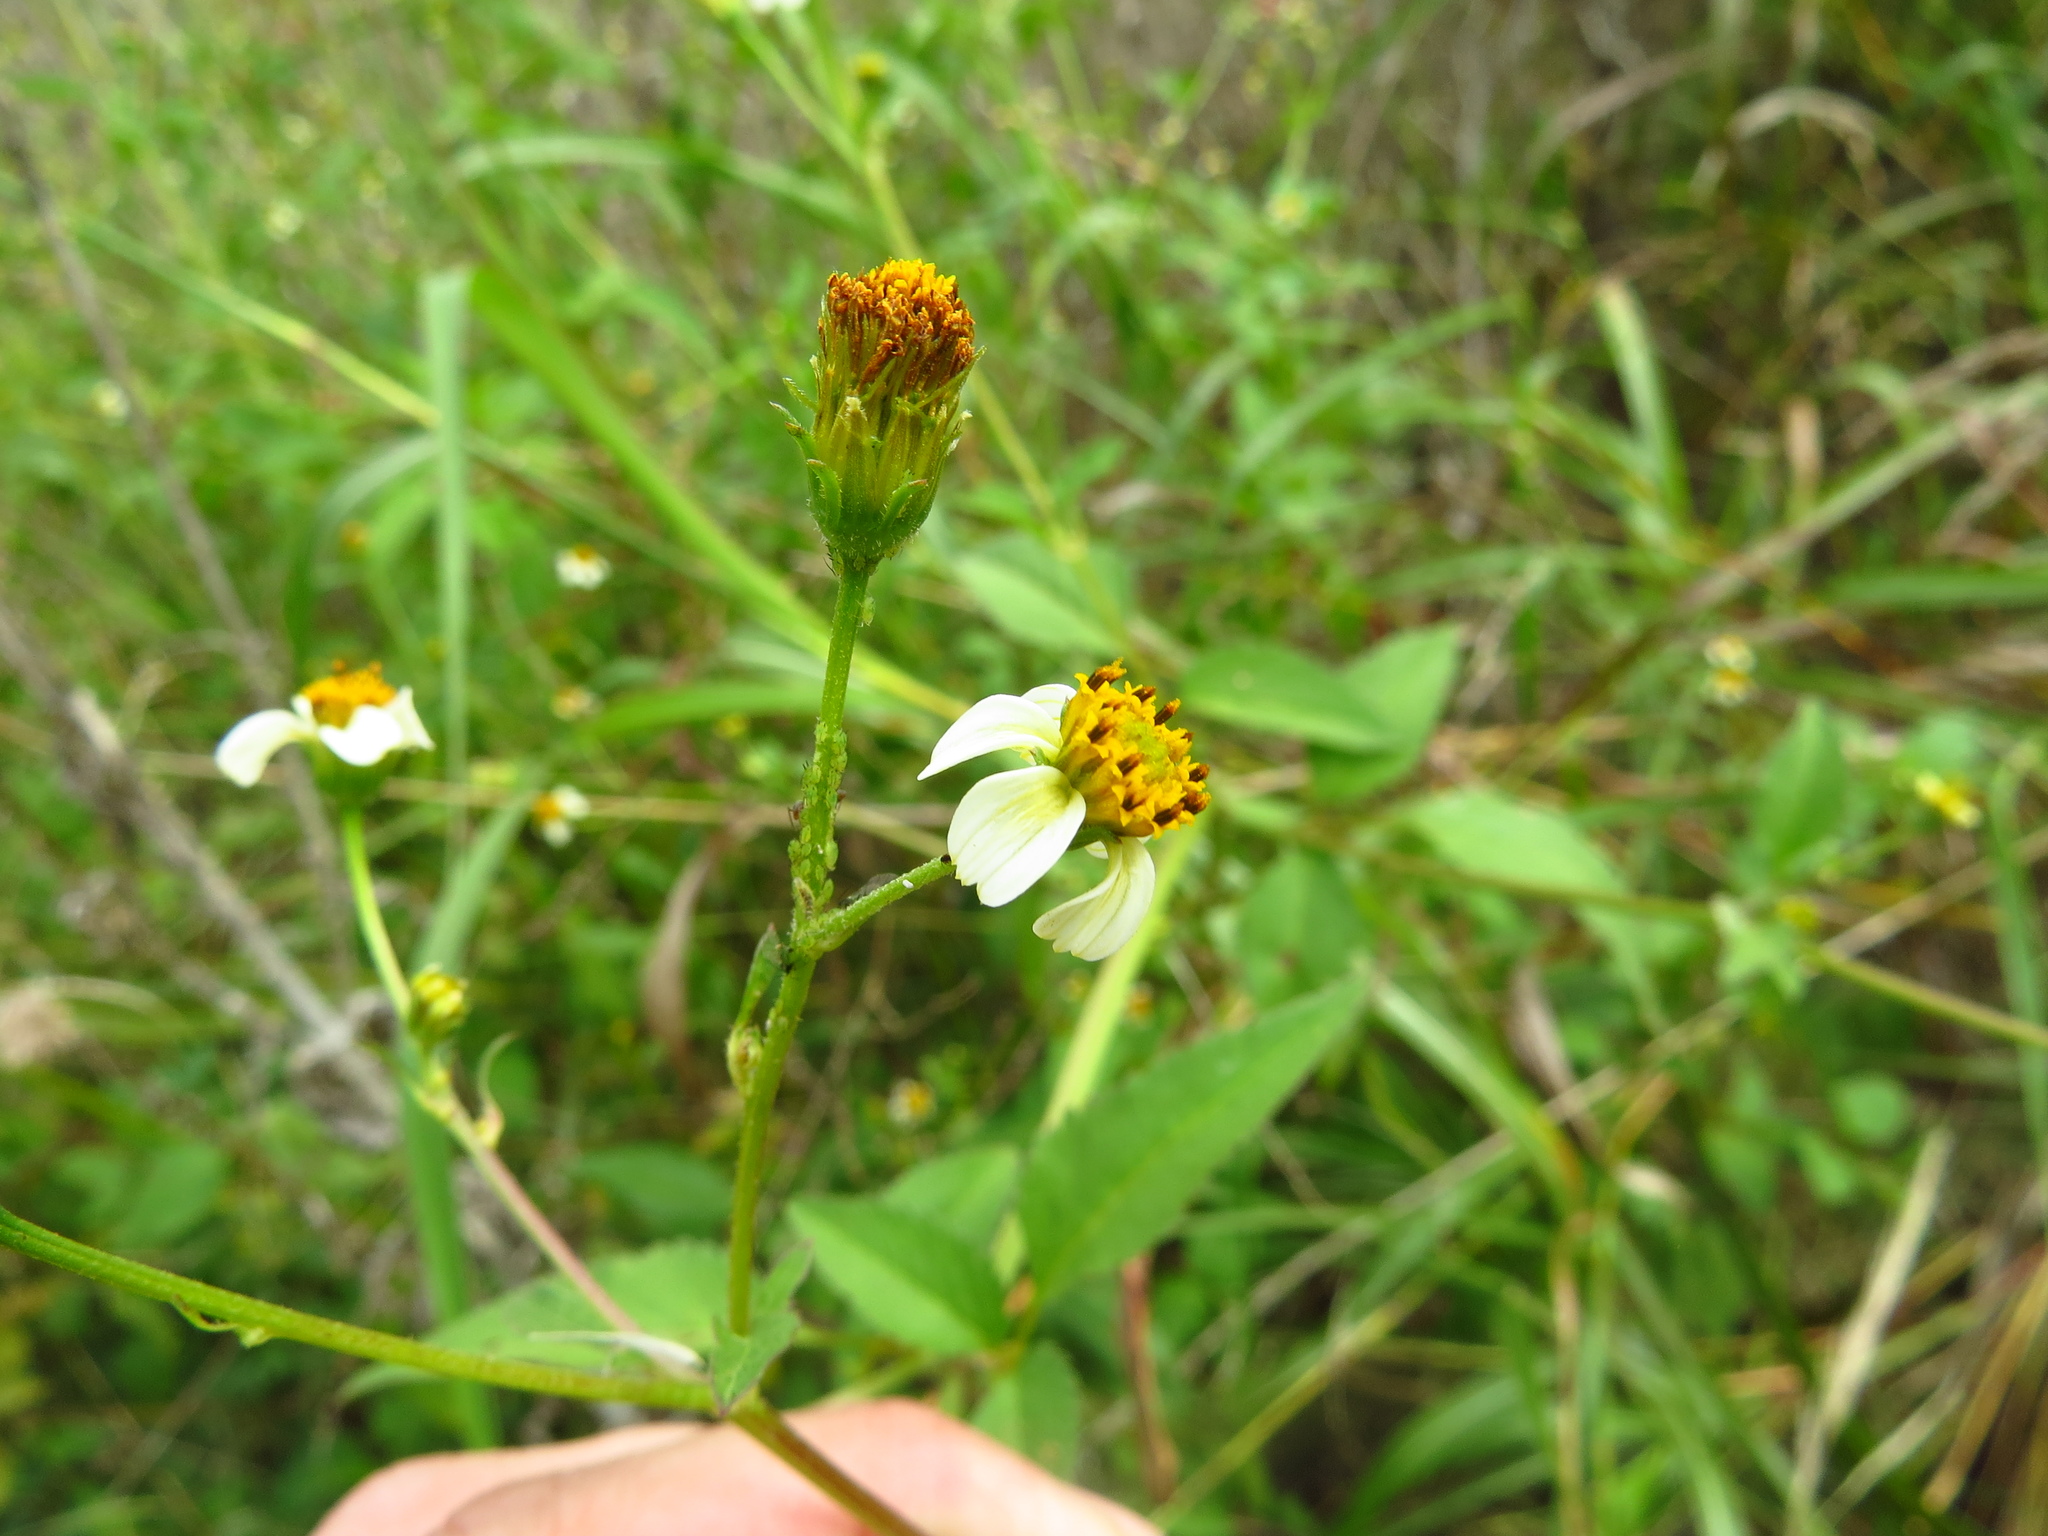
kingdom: Plantae
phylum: Tracheophyta
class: Magnoliopsida
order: Asterales
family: Asteraceae
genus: Bidens
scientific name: Bidens pilosa
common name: Black-jack
